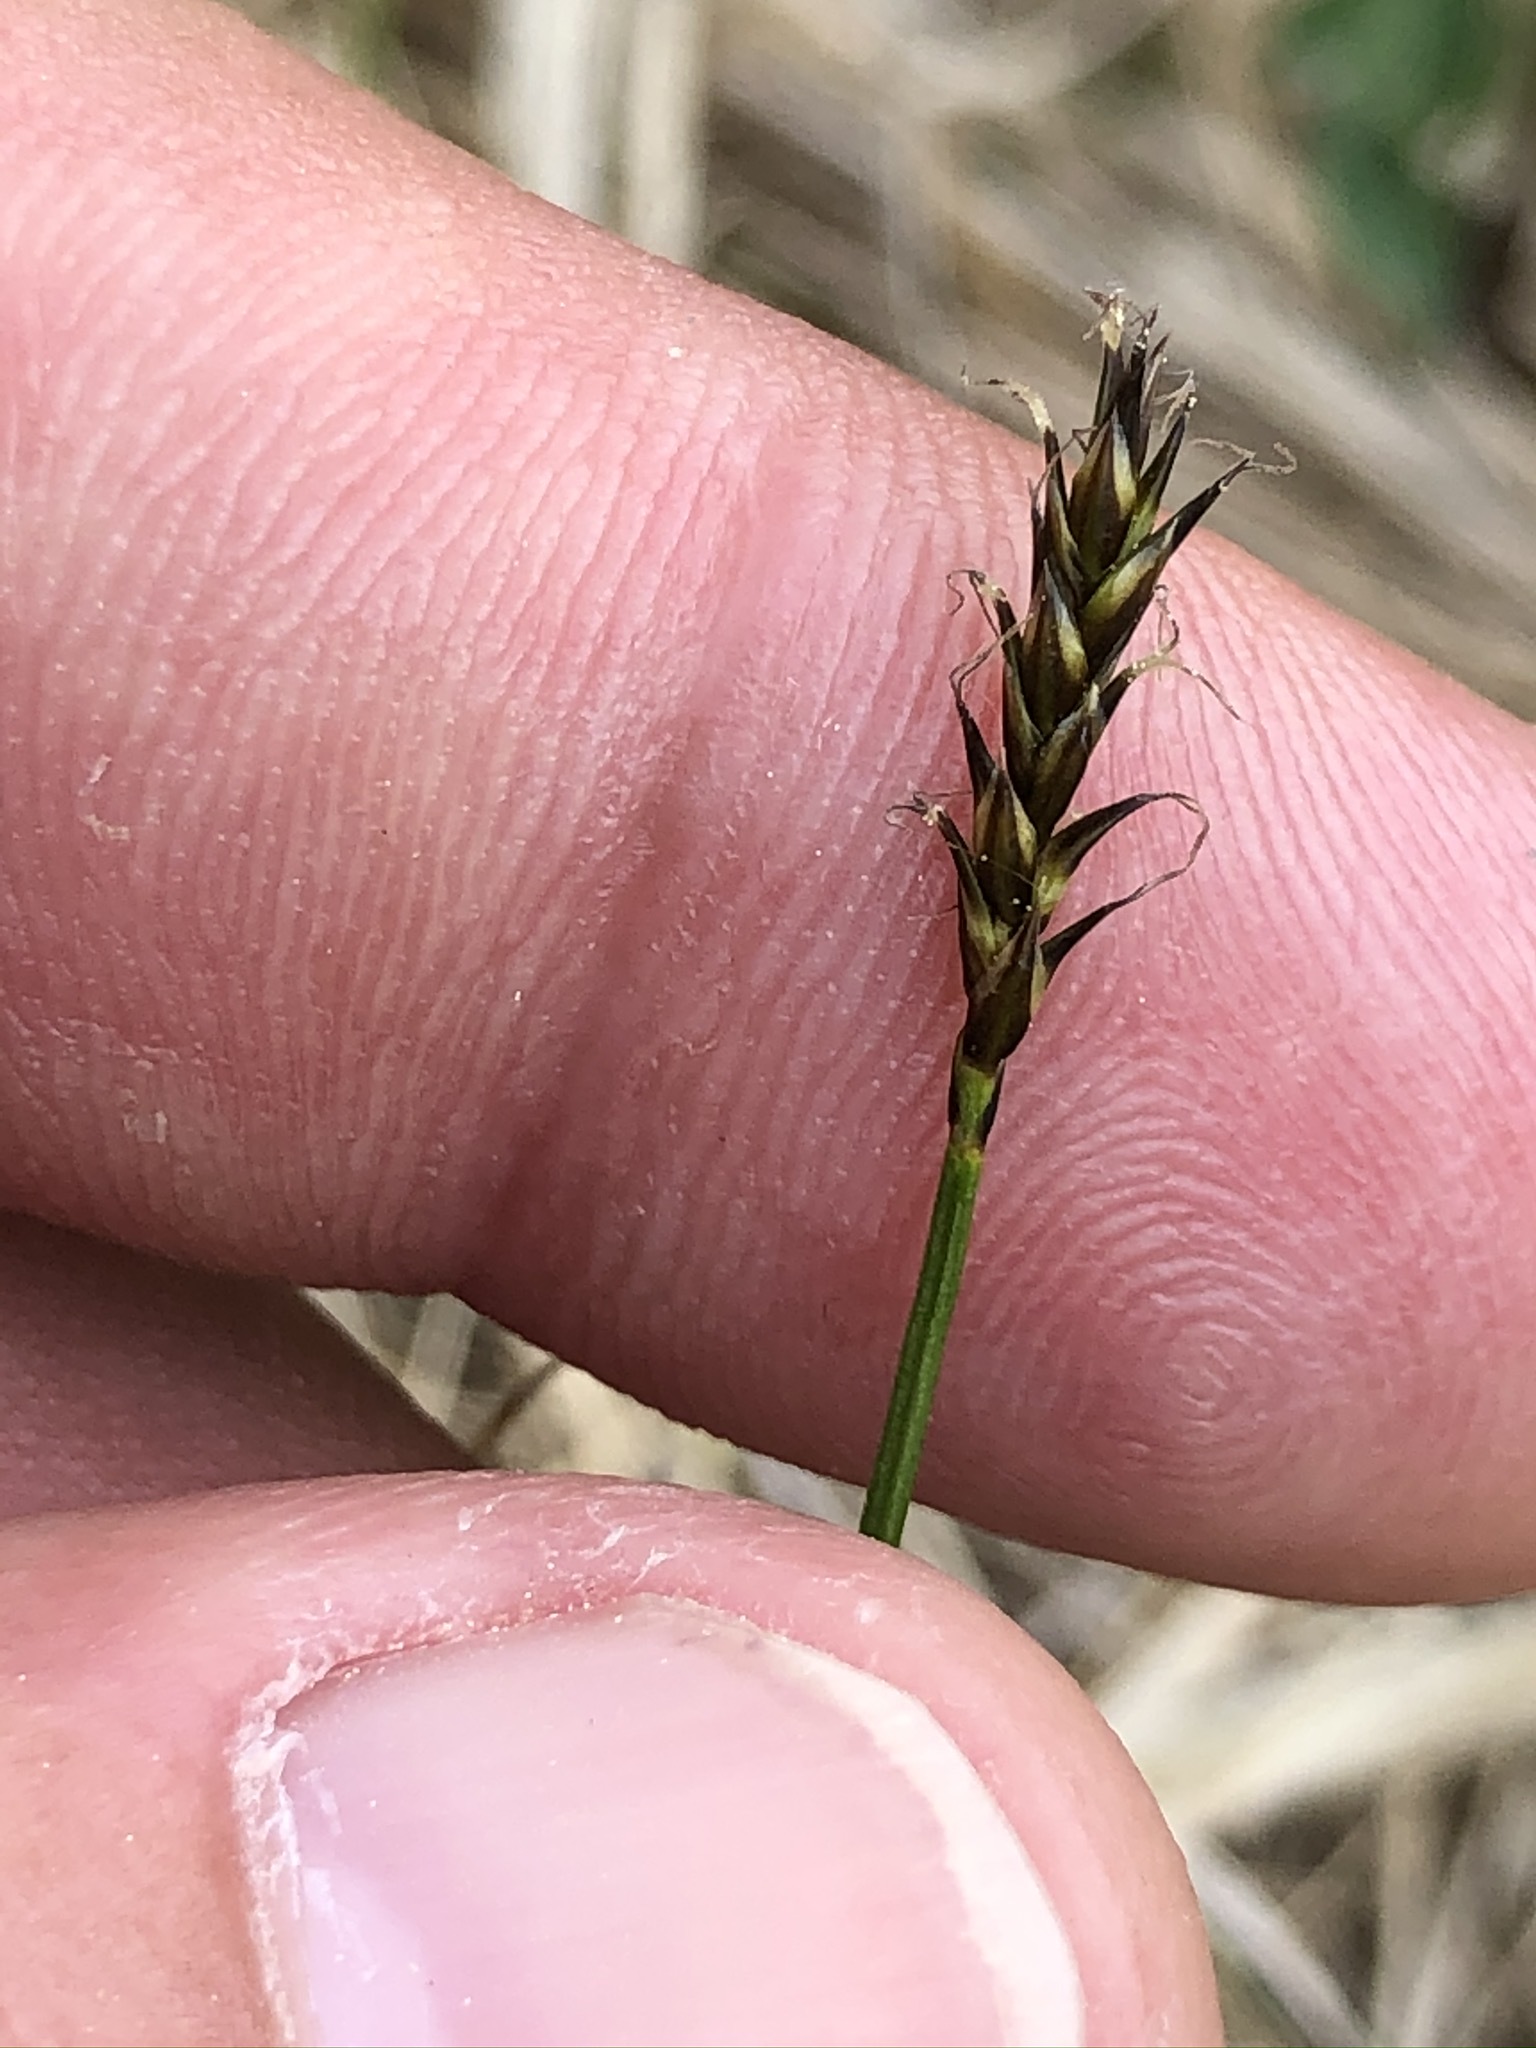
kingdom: Plantae
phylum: Tracheophyta
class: Liliopsida
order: Poales
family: Cyperaceae
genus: Carex
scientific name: Carex davalliana
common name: Davall's sedge
